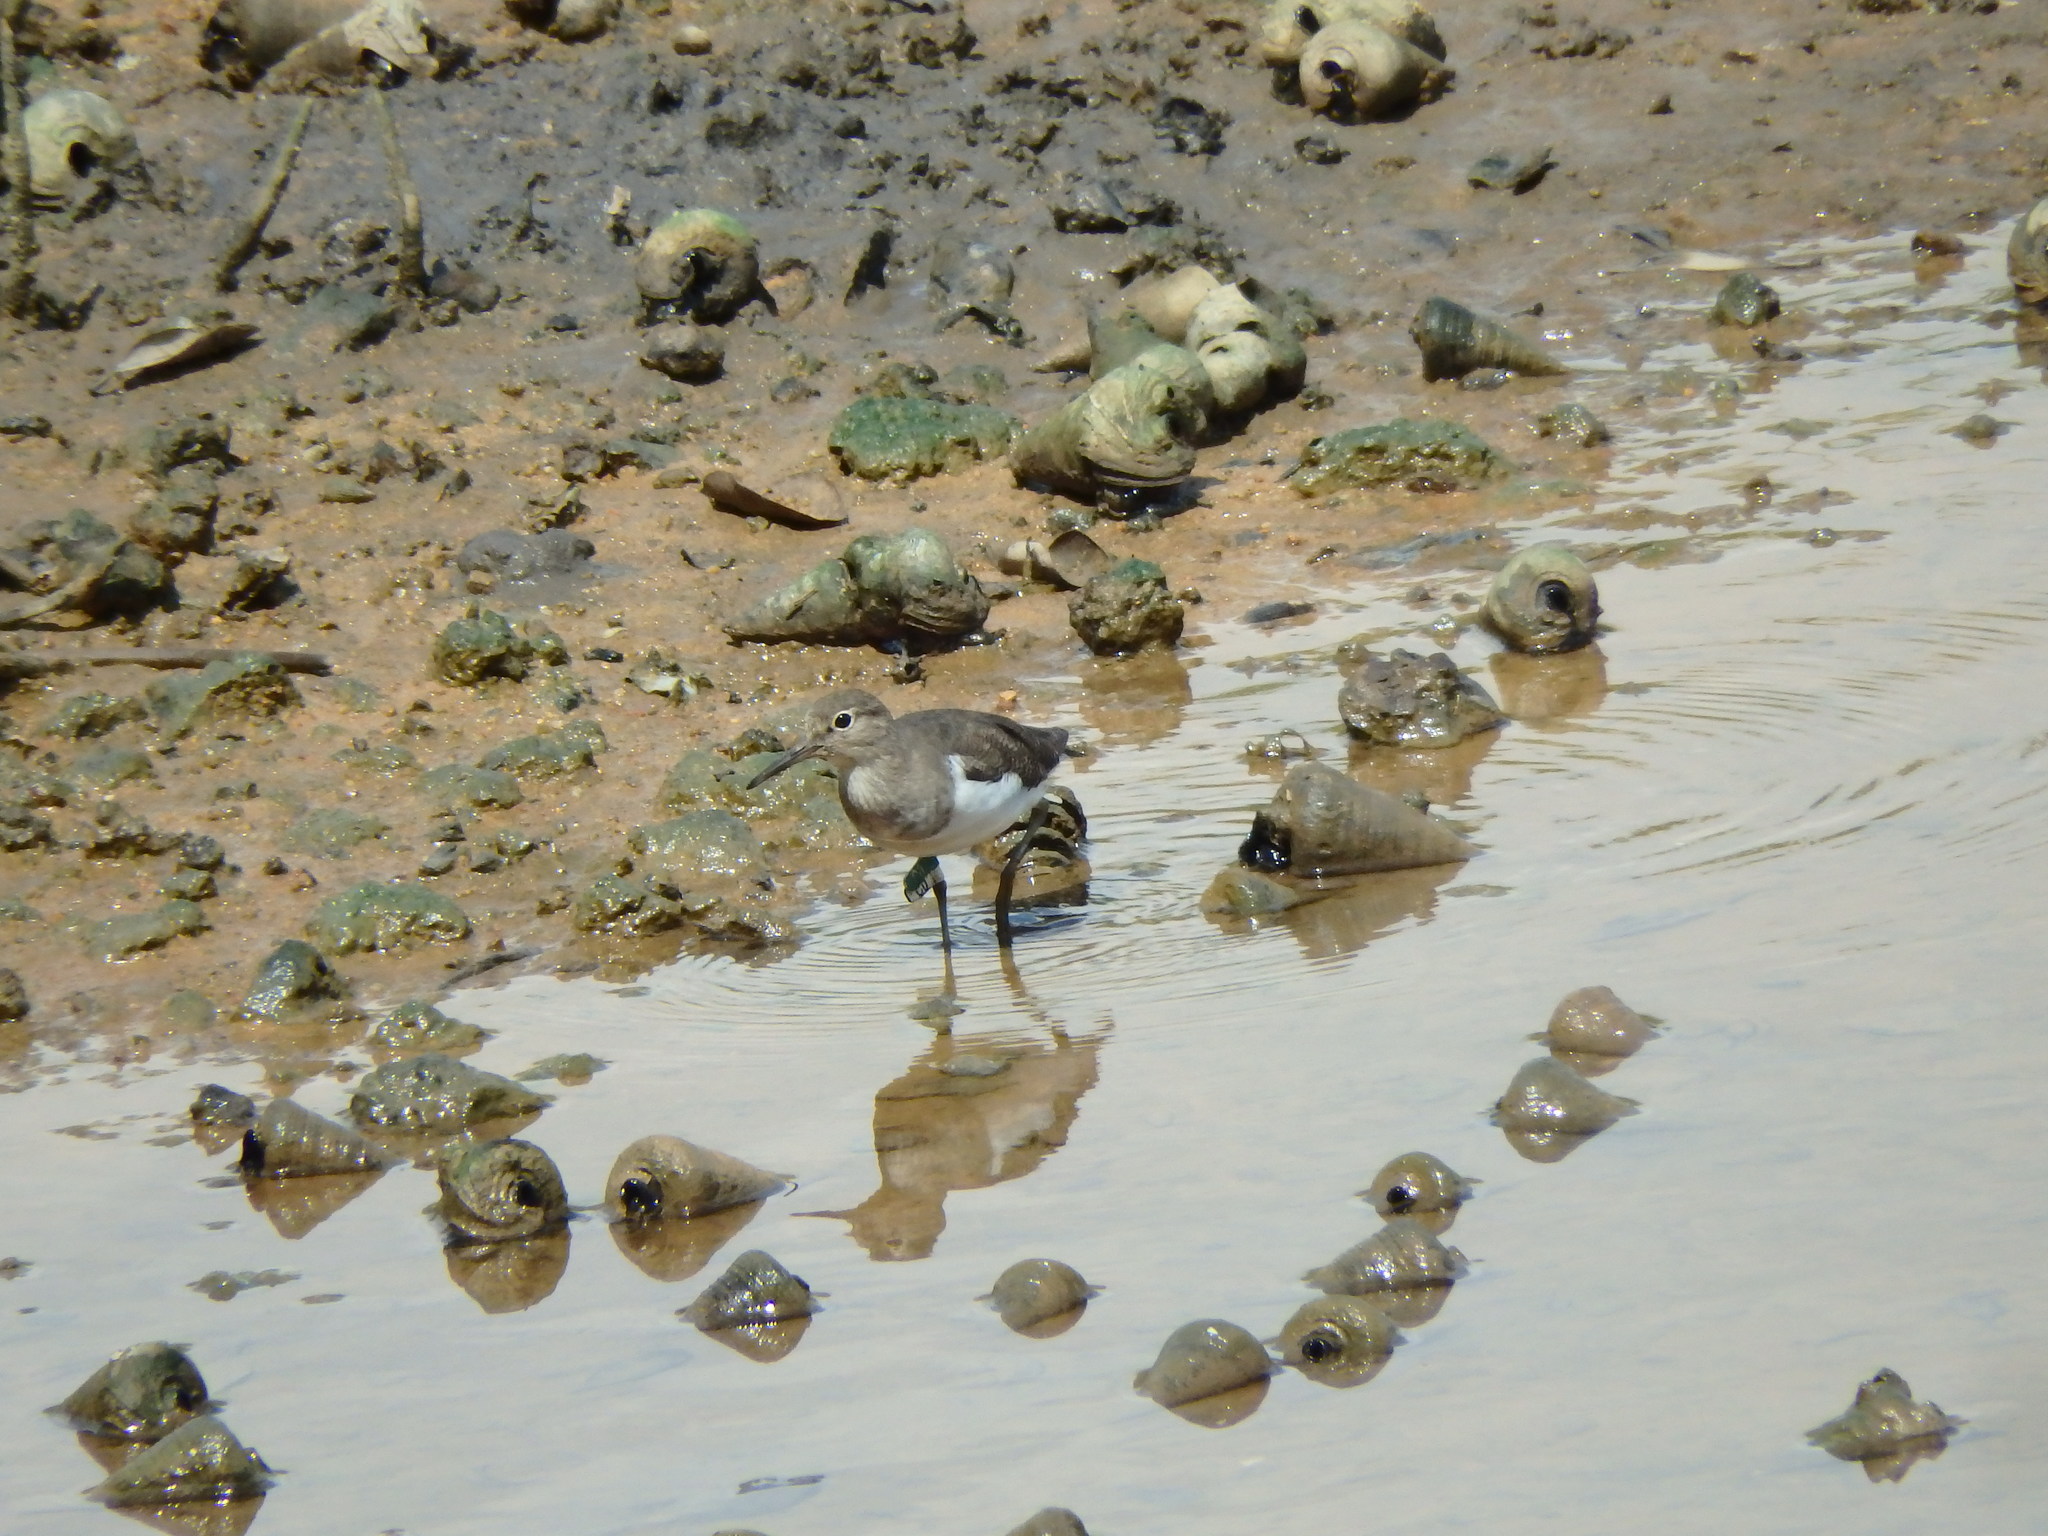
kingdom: Animalia
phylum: Chordata
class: Aves
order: Charadriiformes
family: Scolopacidae
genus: Actitis
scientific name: Actitis hypoleucos
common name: Common sandpiper
